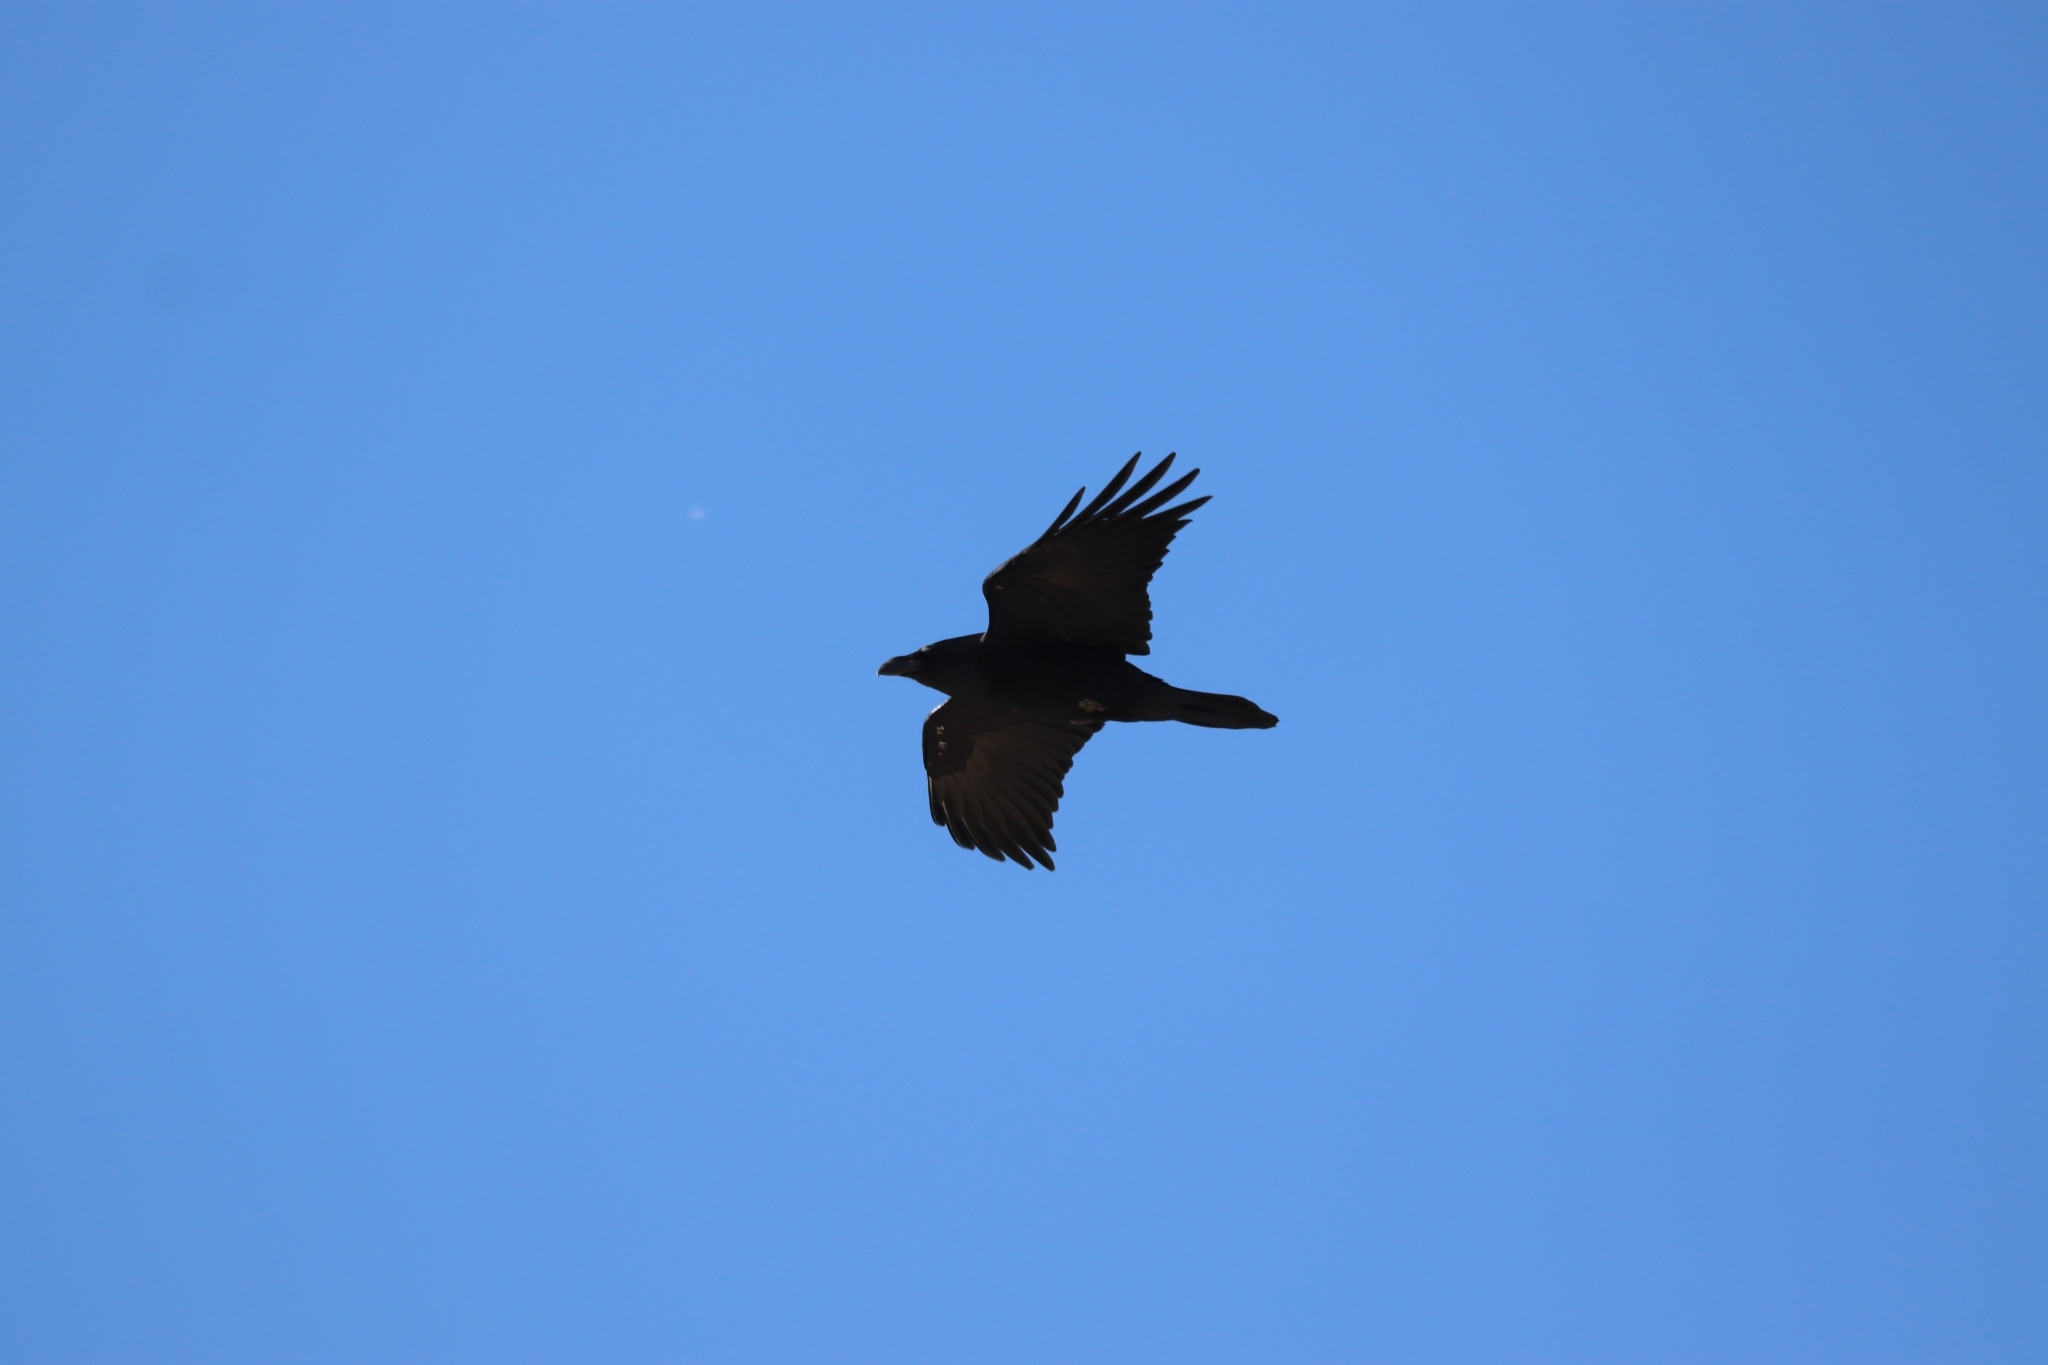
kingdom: Animalia
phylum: Chordata
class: Aves
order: Passeriformes
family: Corvidae
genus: Corvus
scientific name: Corvus corax
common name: Common raven
